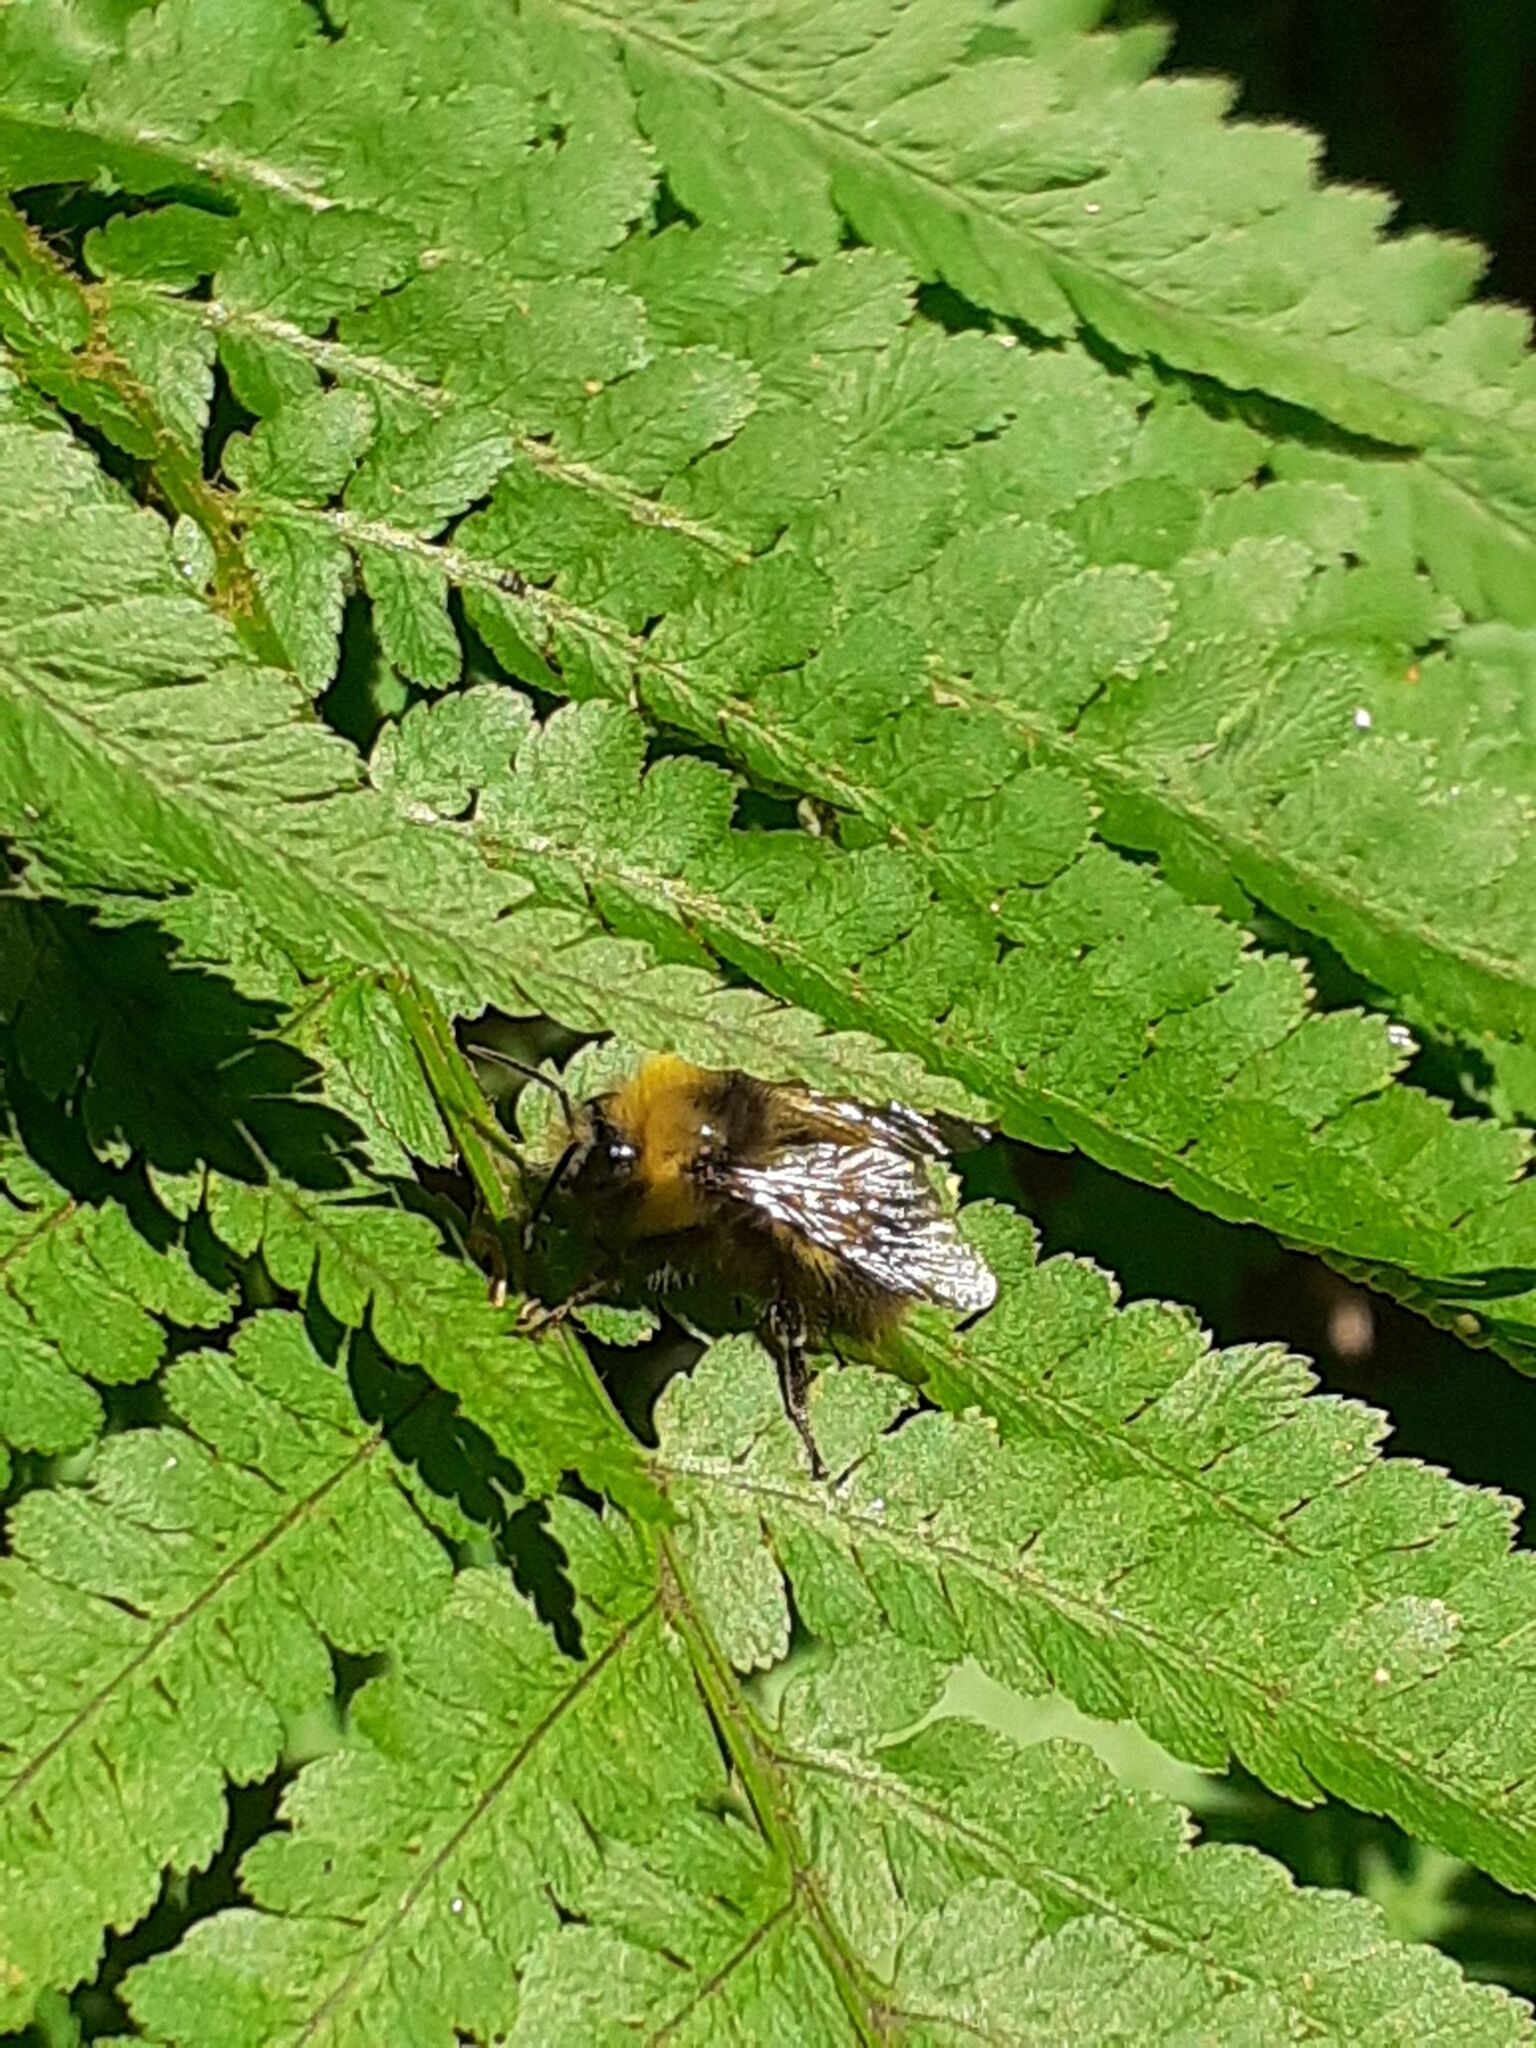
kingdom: Animalia
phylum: Arthropoda
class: Insecta
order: Hymenoptera
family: Apidae
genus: Bombus
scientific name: Bombus pratorum
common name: Early humble-bee
